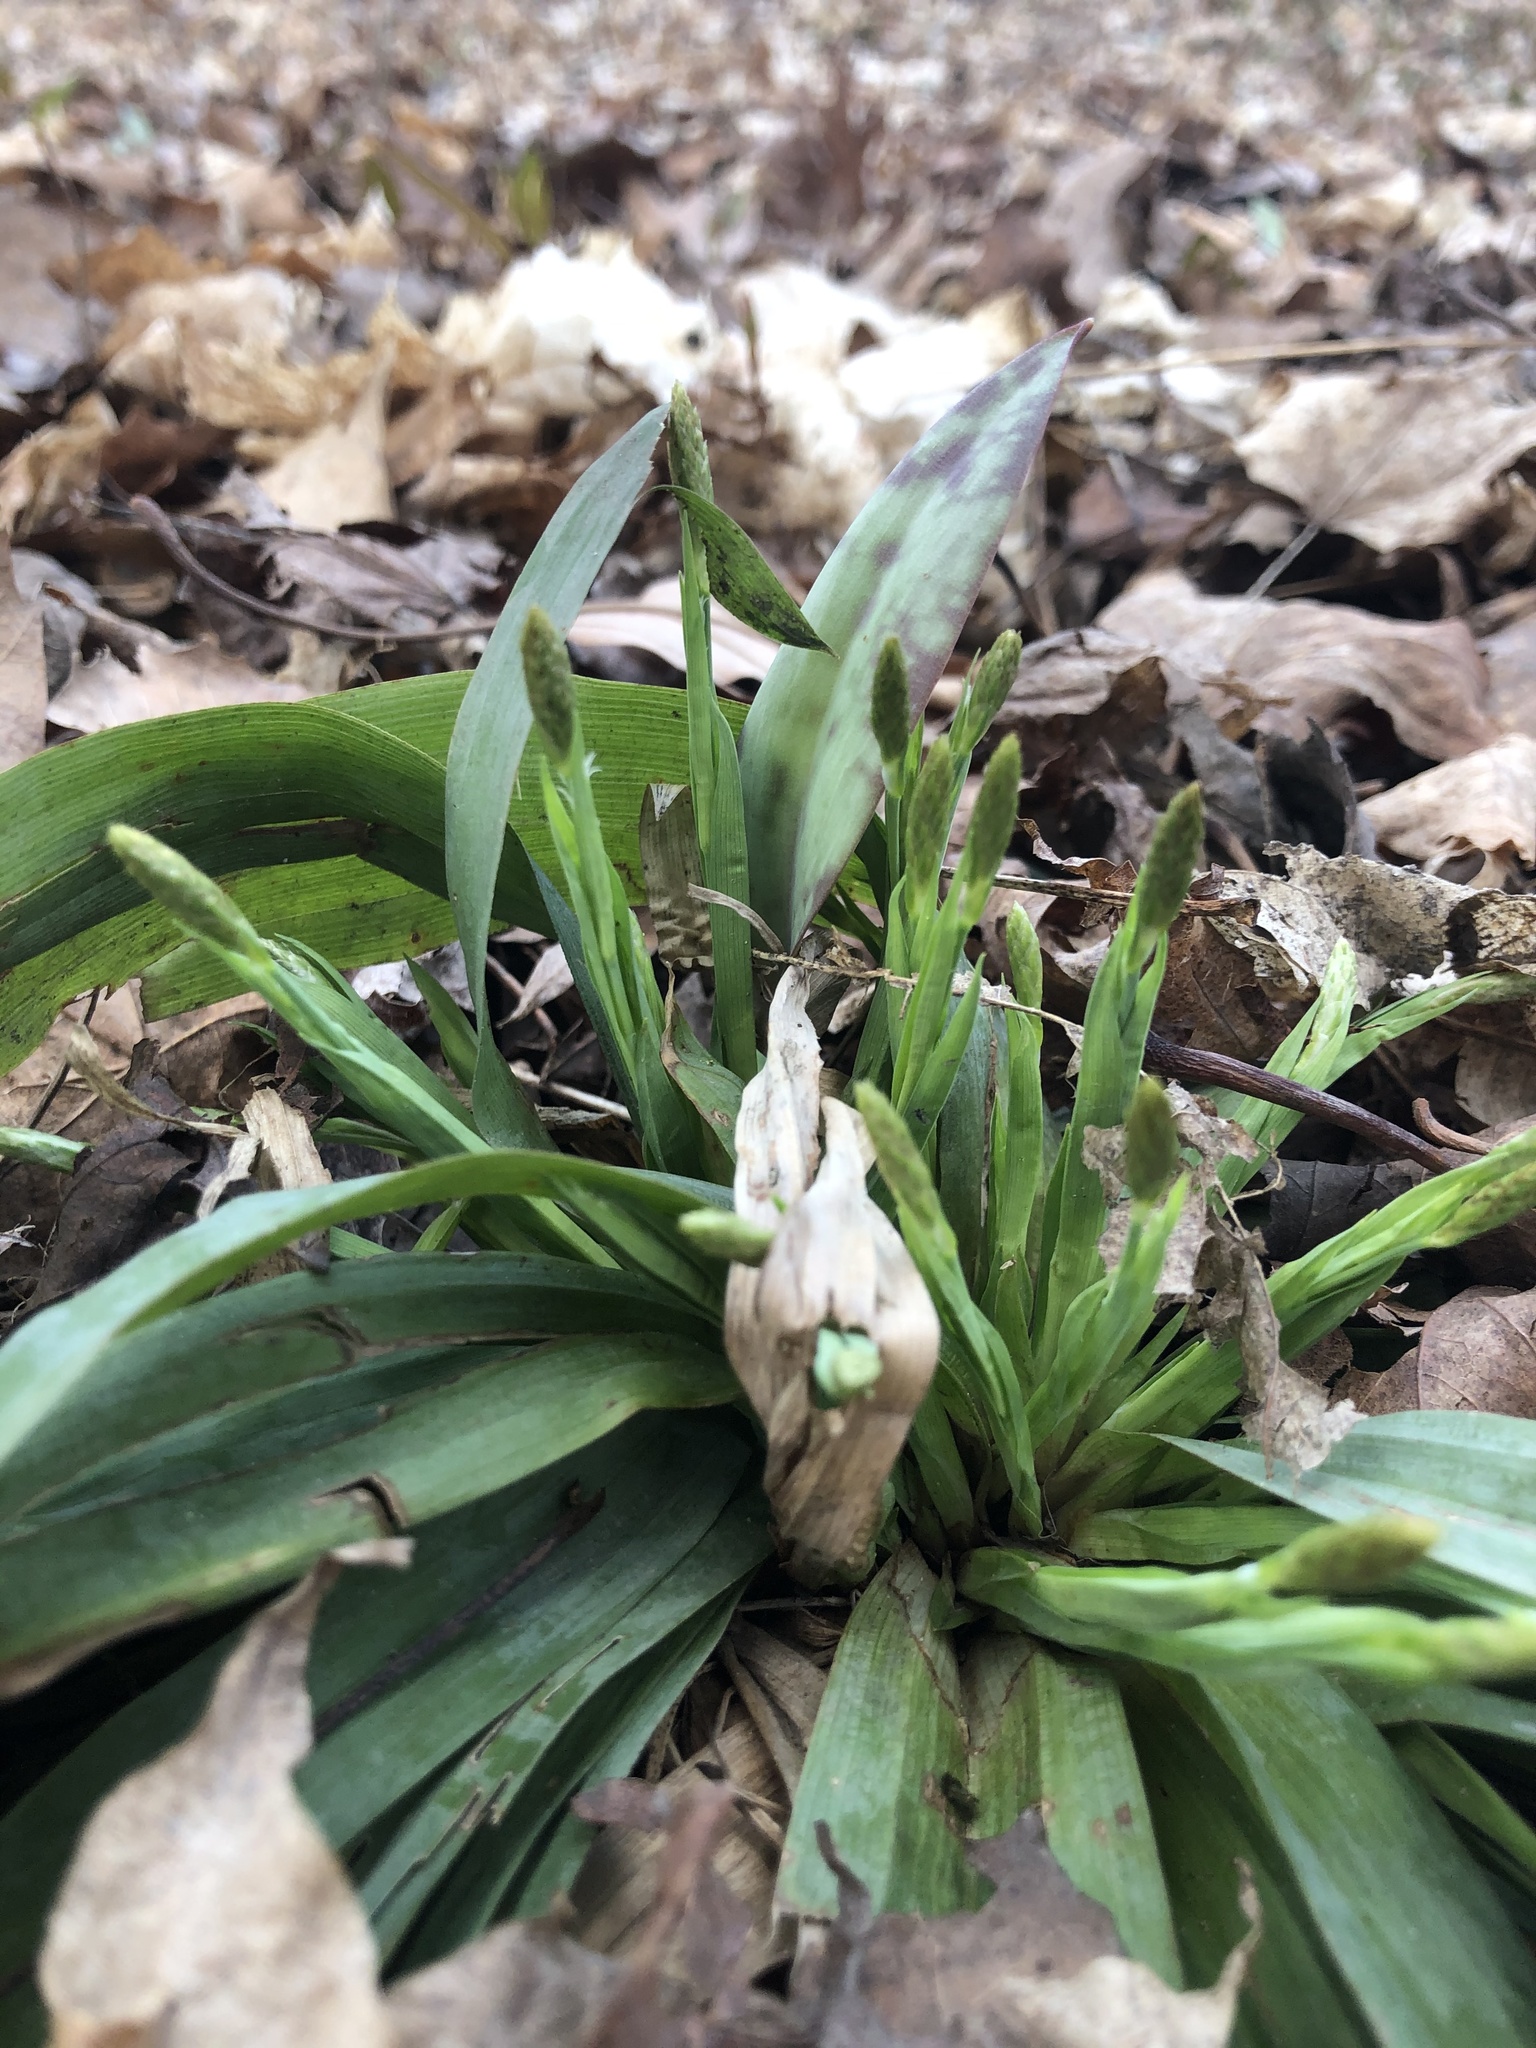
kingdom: Plantae
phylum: Tracheophyta
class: Liliopsida
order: Poales
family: Cyperaceae
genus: Carex
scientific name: Carex platyphylla
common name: Broad-leaved sedge
